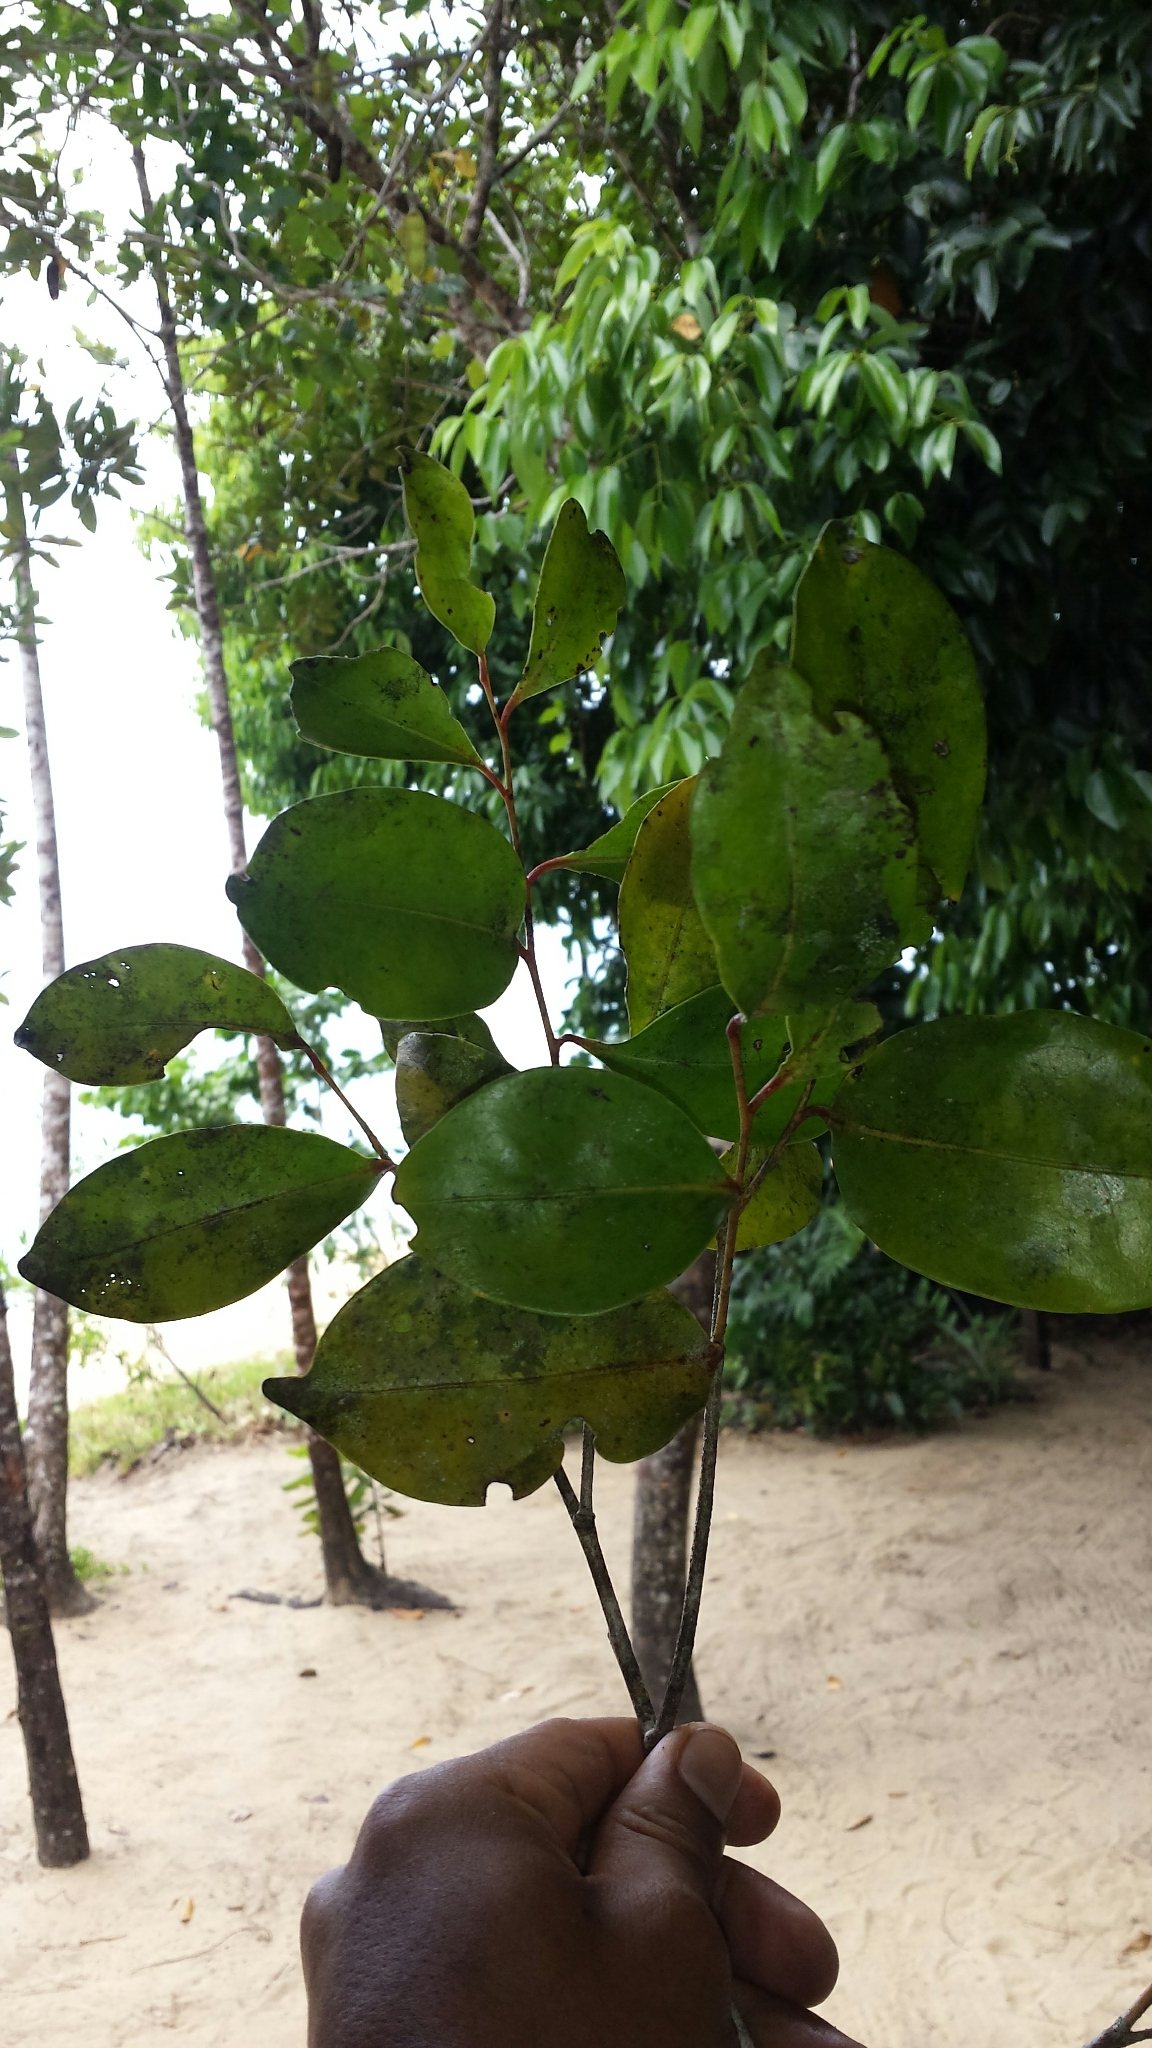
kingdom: Plantae
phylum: Tracheophyta
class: Magnoliopsida
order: Ericales
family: Ebenaceae
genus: Diospyros
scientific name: Diospyros squamosa
